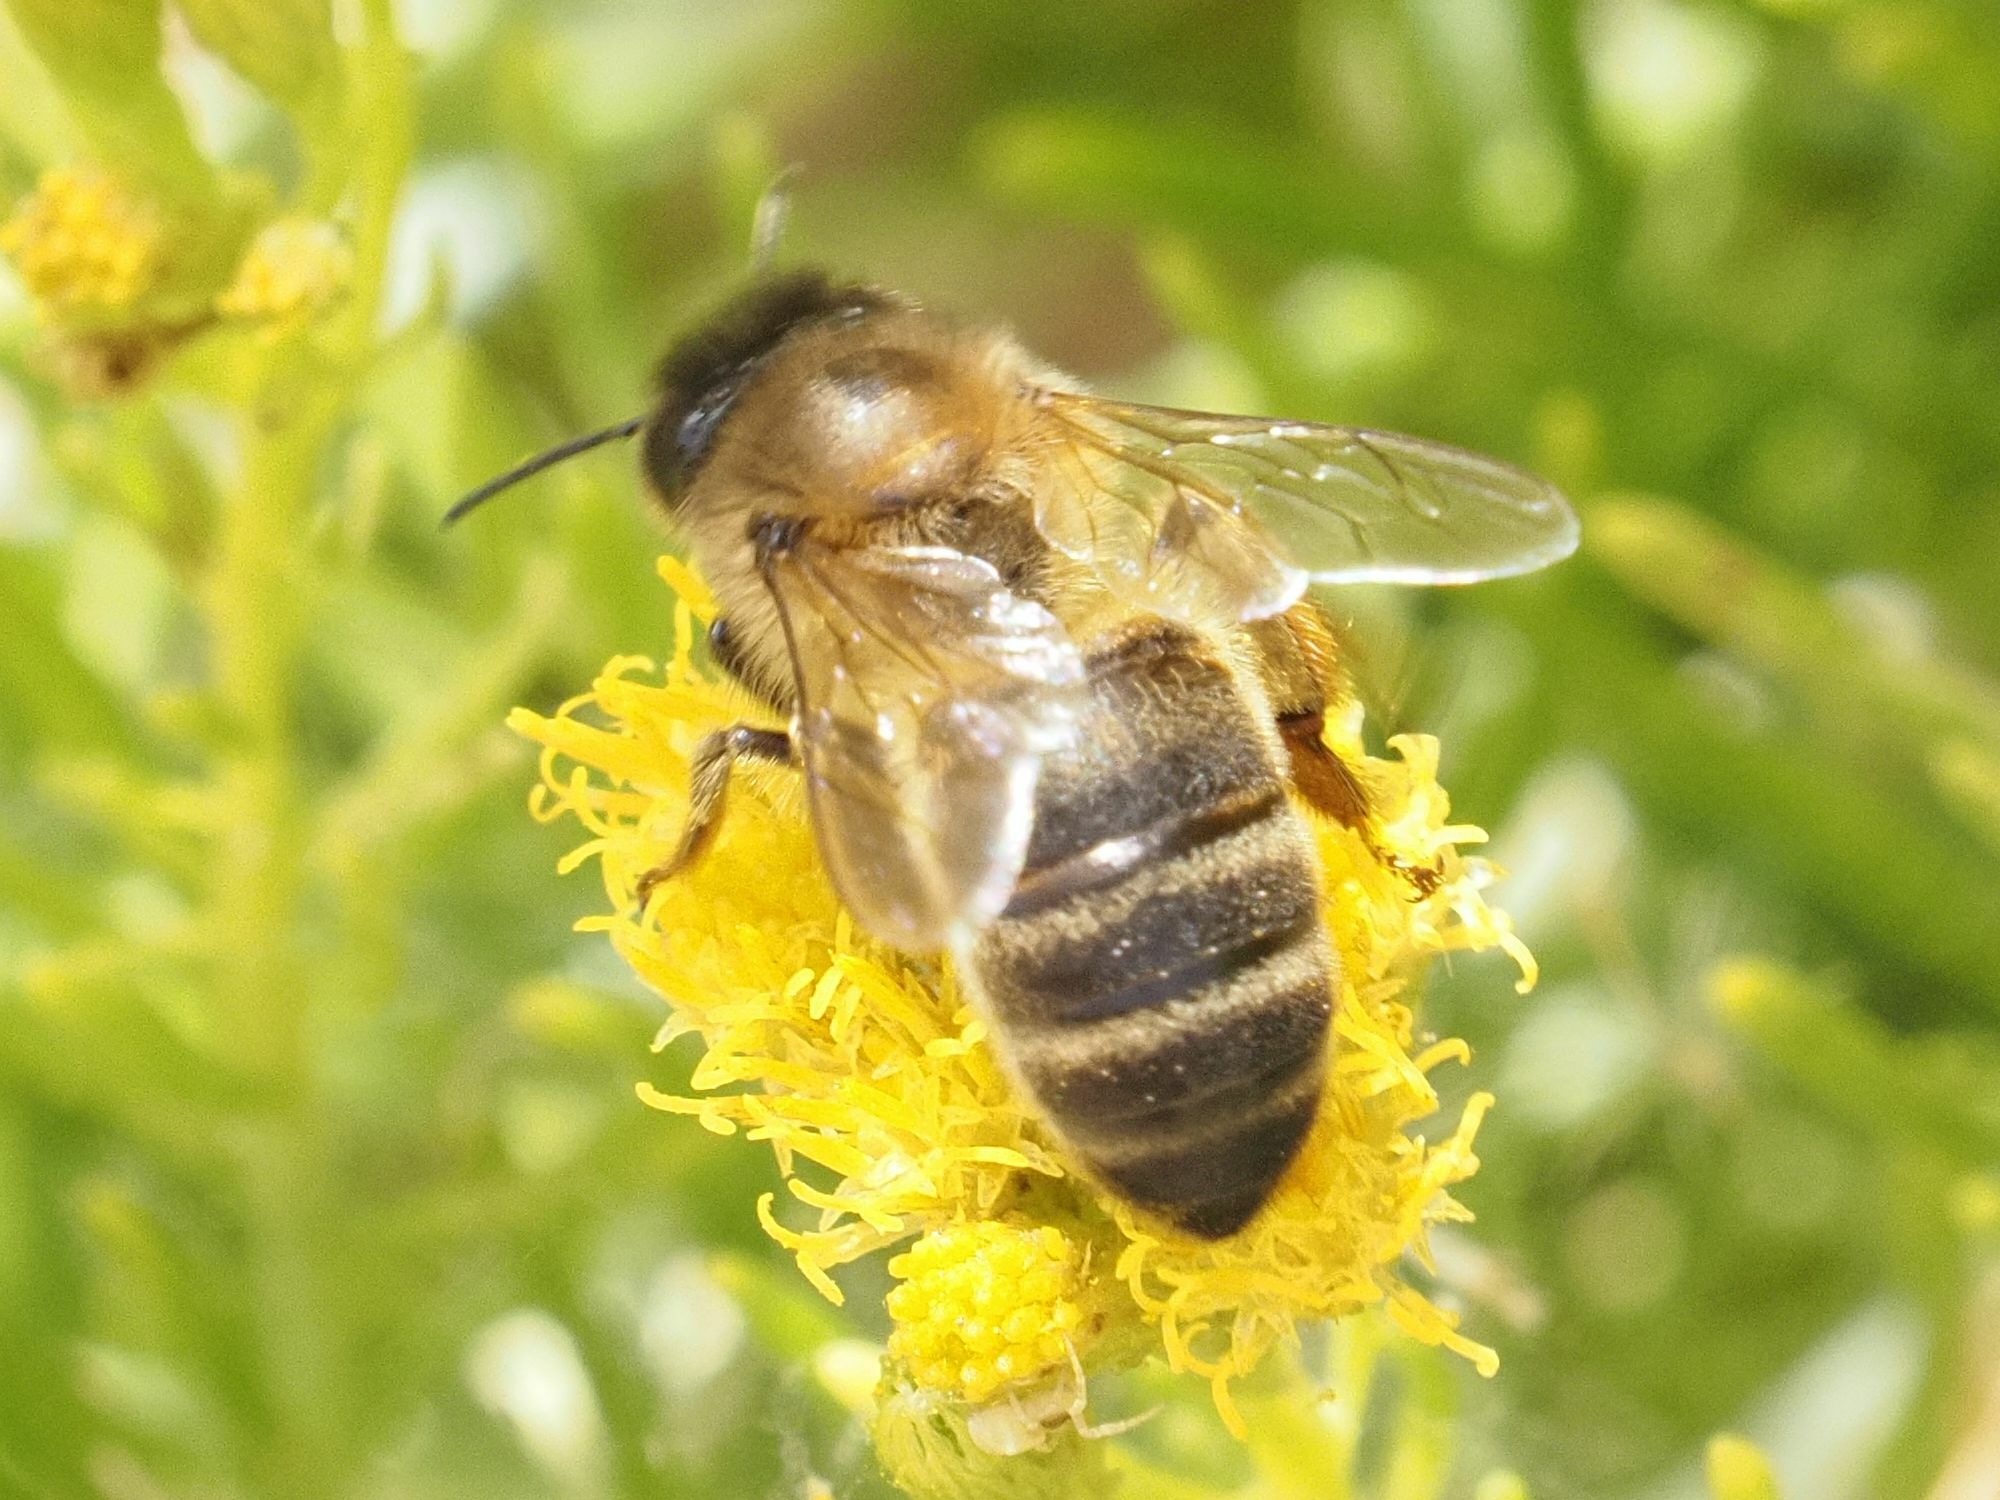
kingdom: Animalia
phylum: Arthropoda
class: Insecta
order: Hymenoptera
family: Apidae
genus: Apis
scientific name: Apis mellifera
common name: Honey bee
